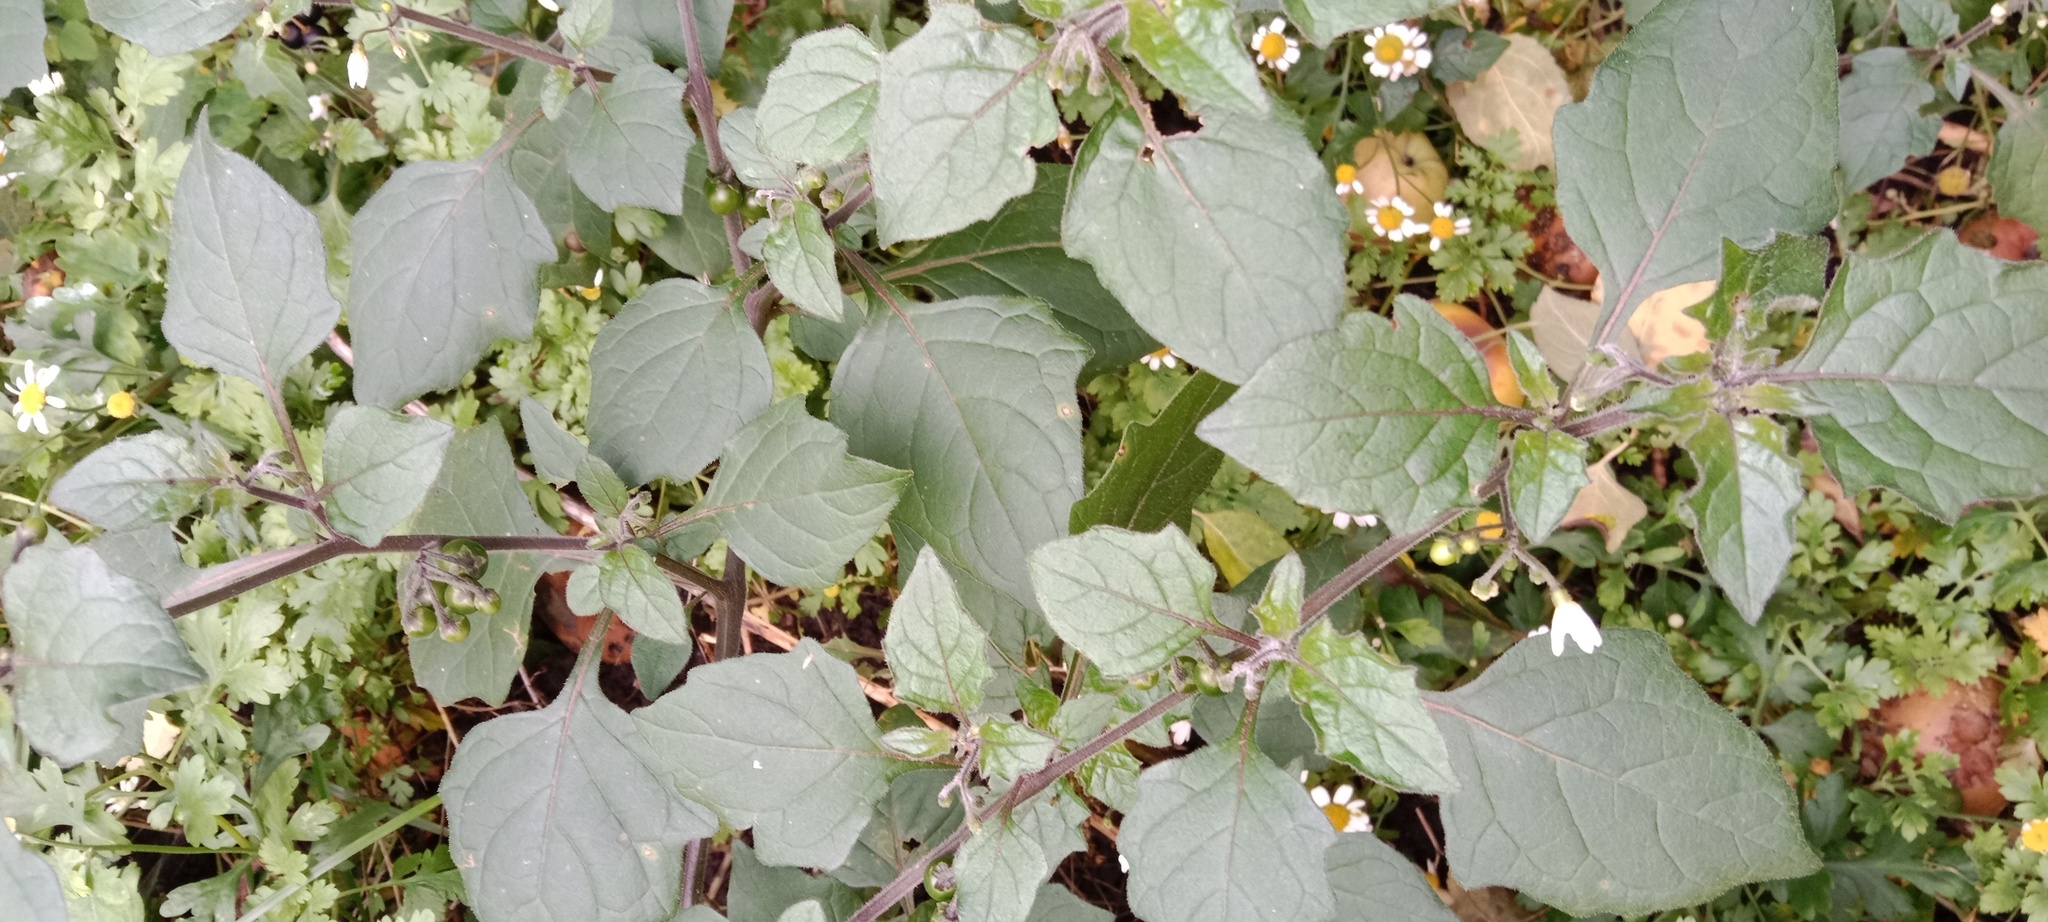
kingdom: Plantae
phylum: Tracheophyta
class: Magnoliopsida
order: Solanales
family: Solanaceae
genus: Solanum
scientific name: Solanum nigrum
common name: Black nightshade
